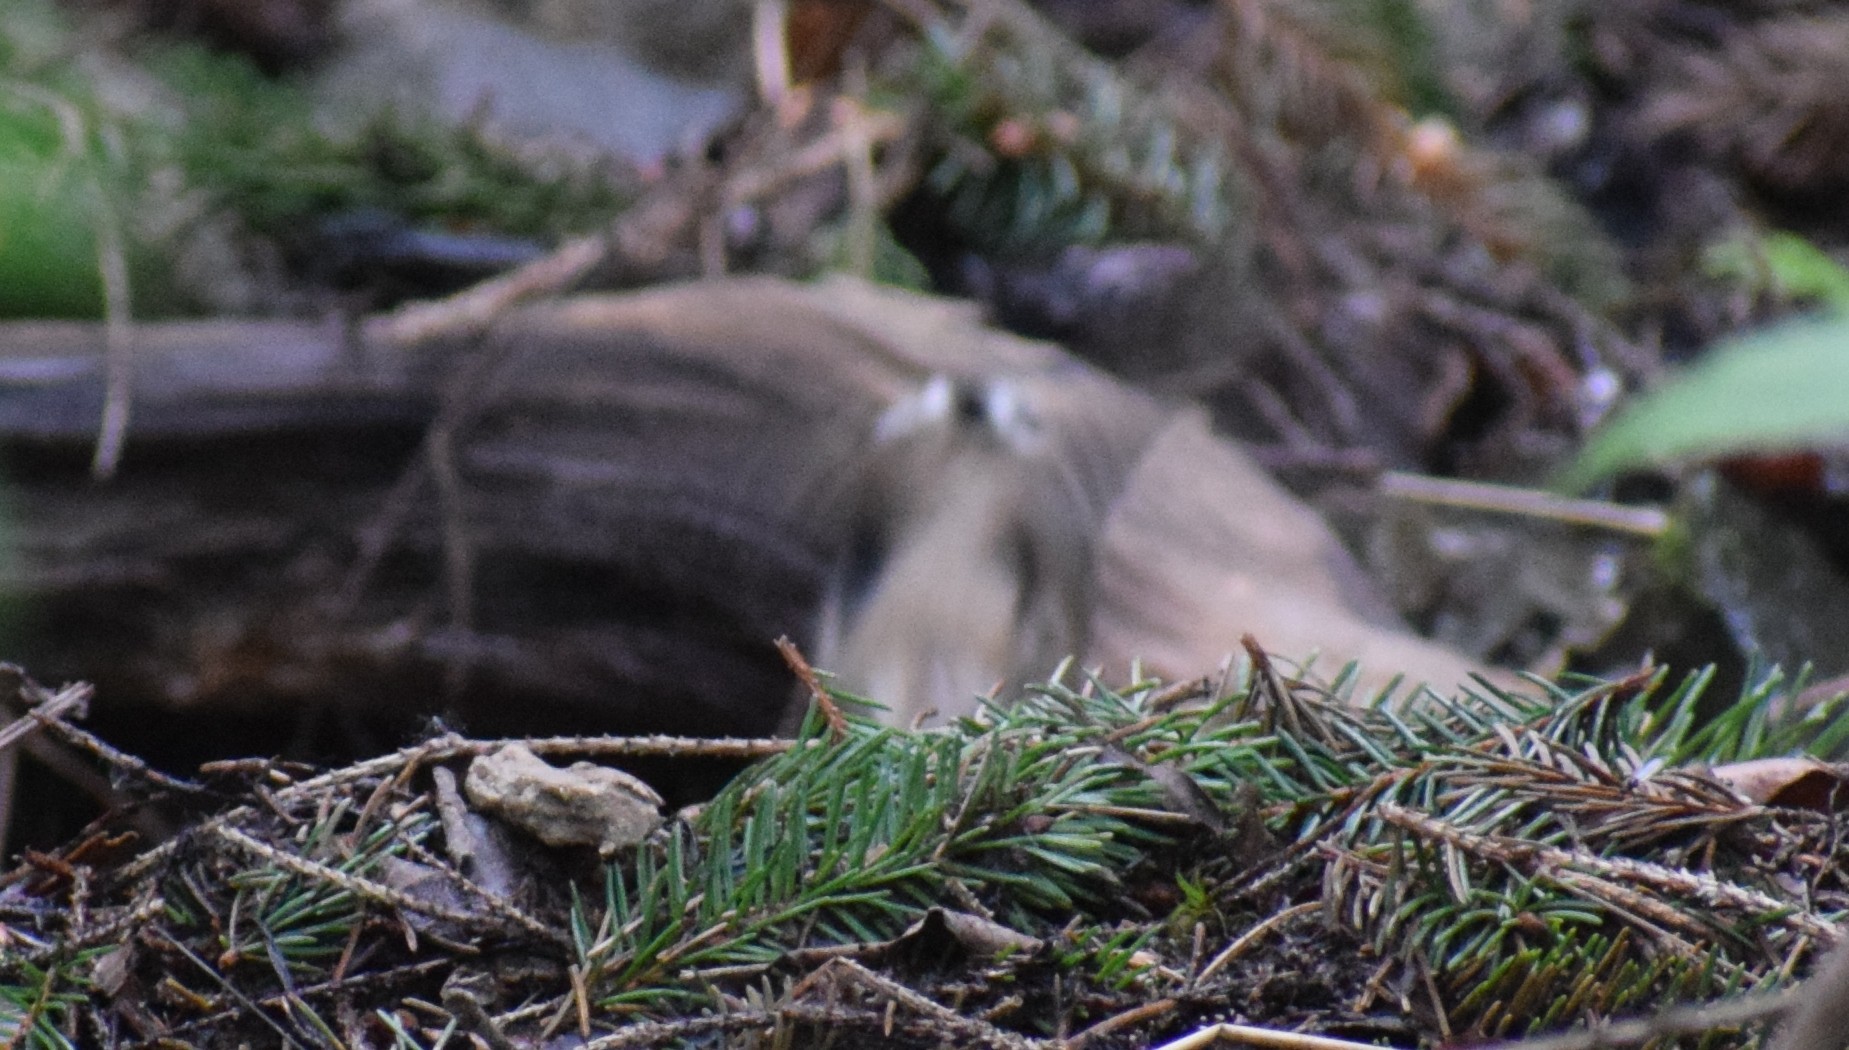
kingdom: Animalia
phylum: Chordata
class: Aves
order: Passeriformes
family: Paridae
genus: Lophophanes
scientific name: Lophophanes cristatus
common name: European crested tit
